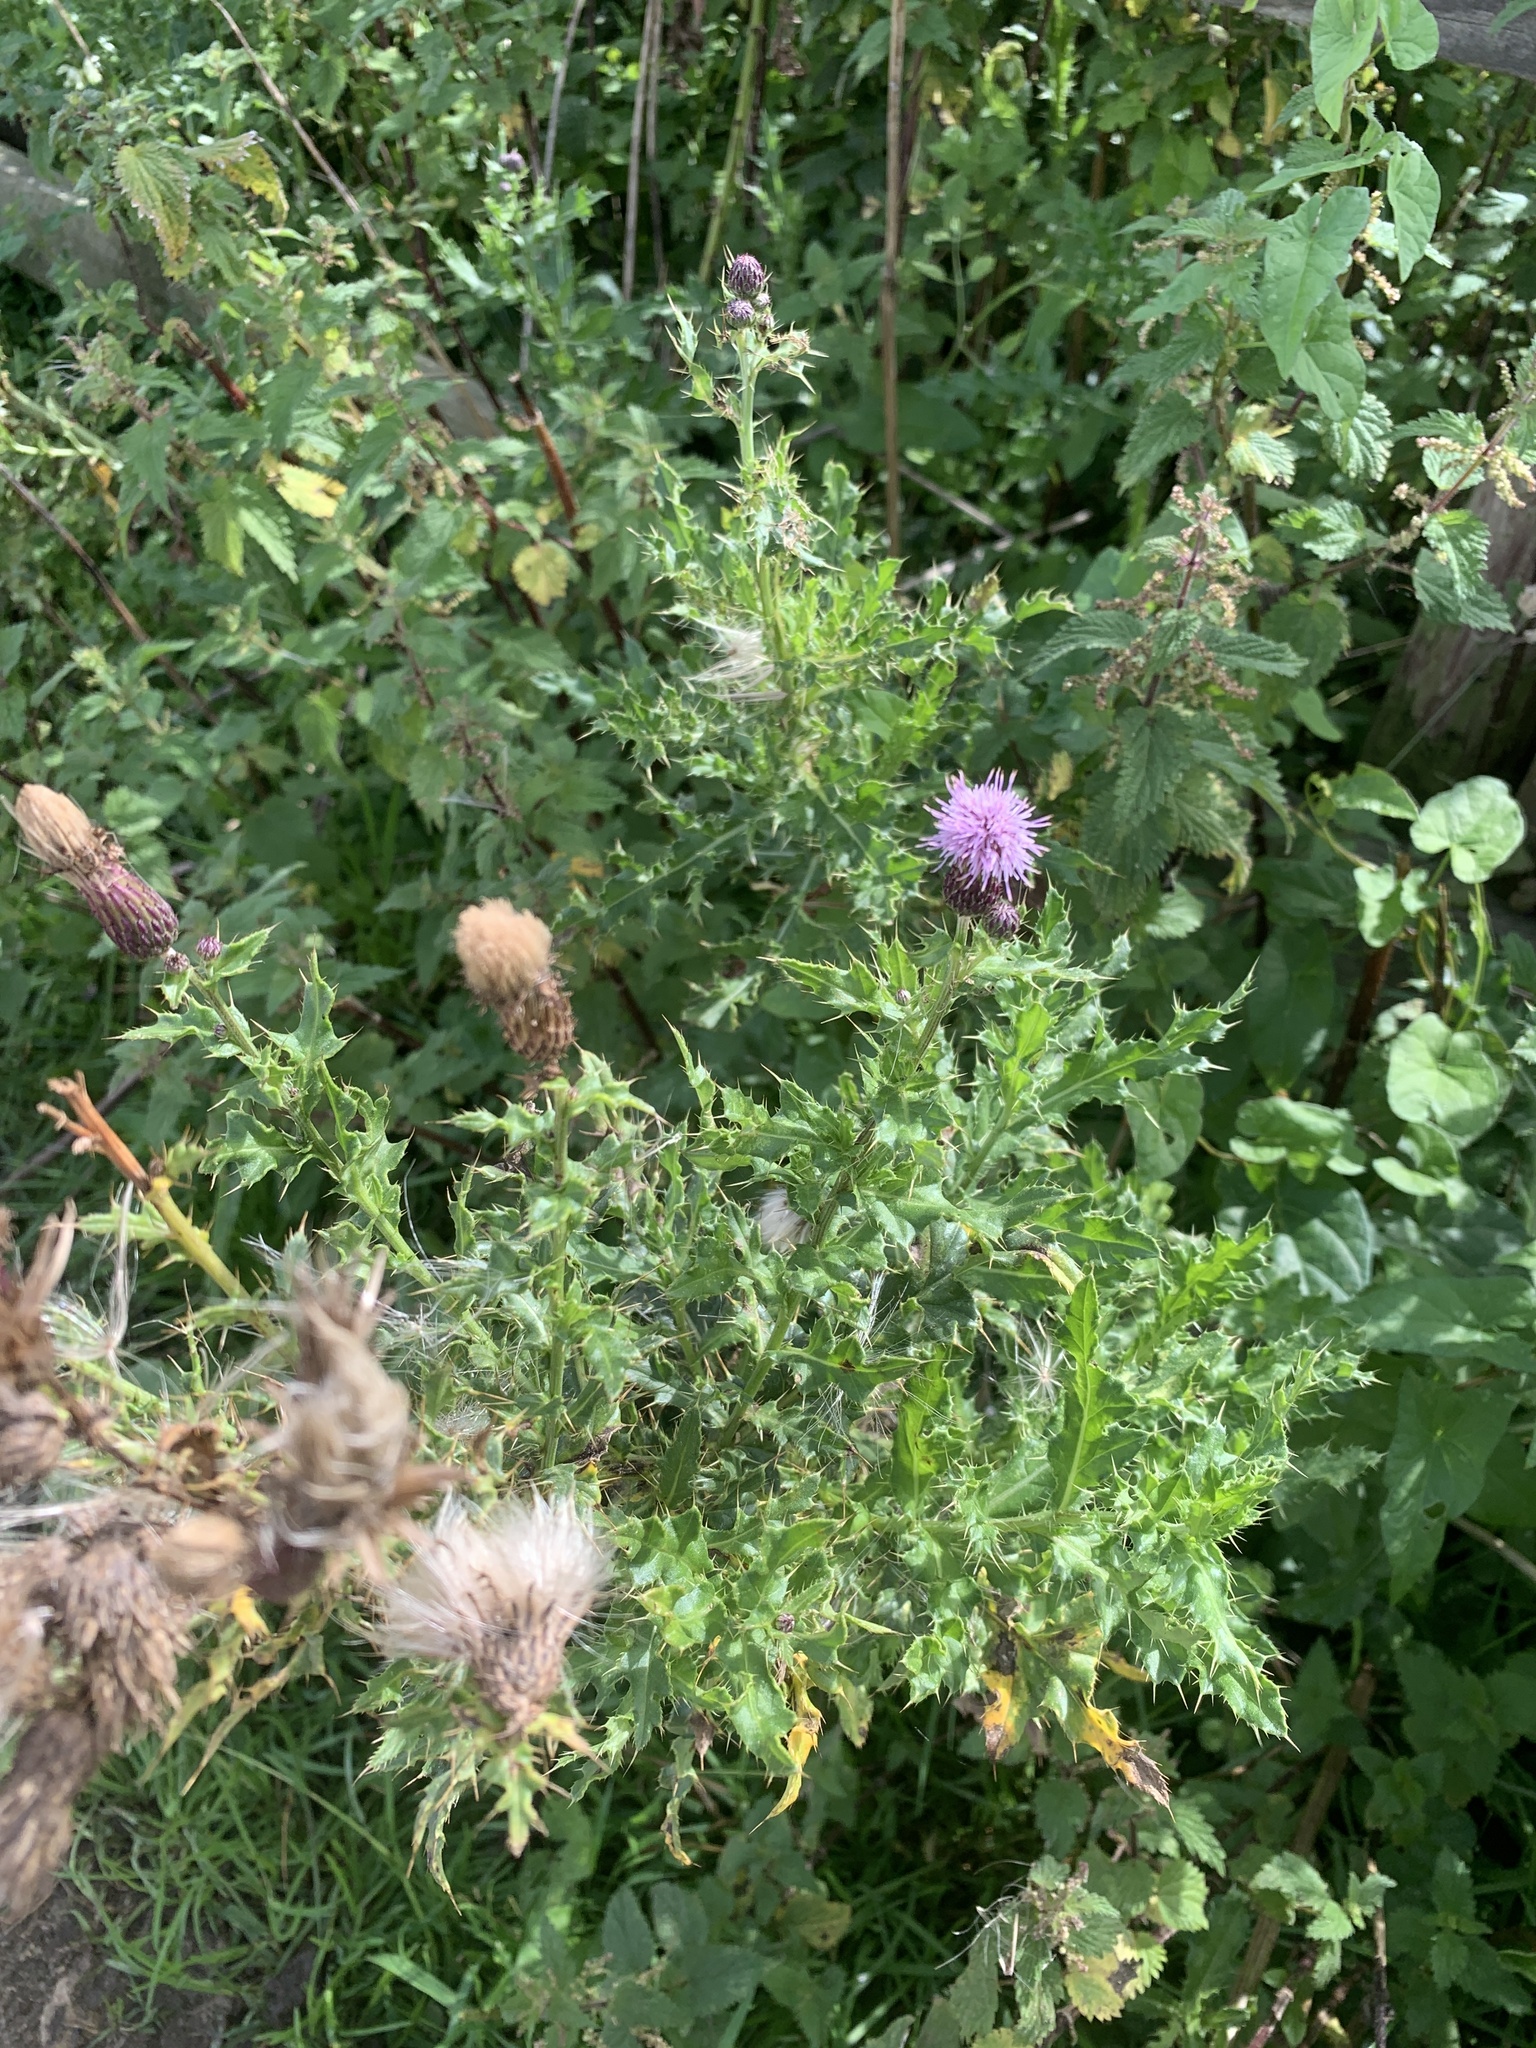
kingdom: Plantae
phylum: Tracheophyta
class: Magnoliopsida
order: Asterales
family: Asteraceae
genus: Cirsium
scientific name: Cirsium arvense
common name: Creeping thistle
